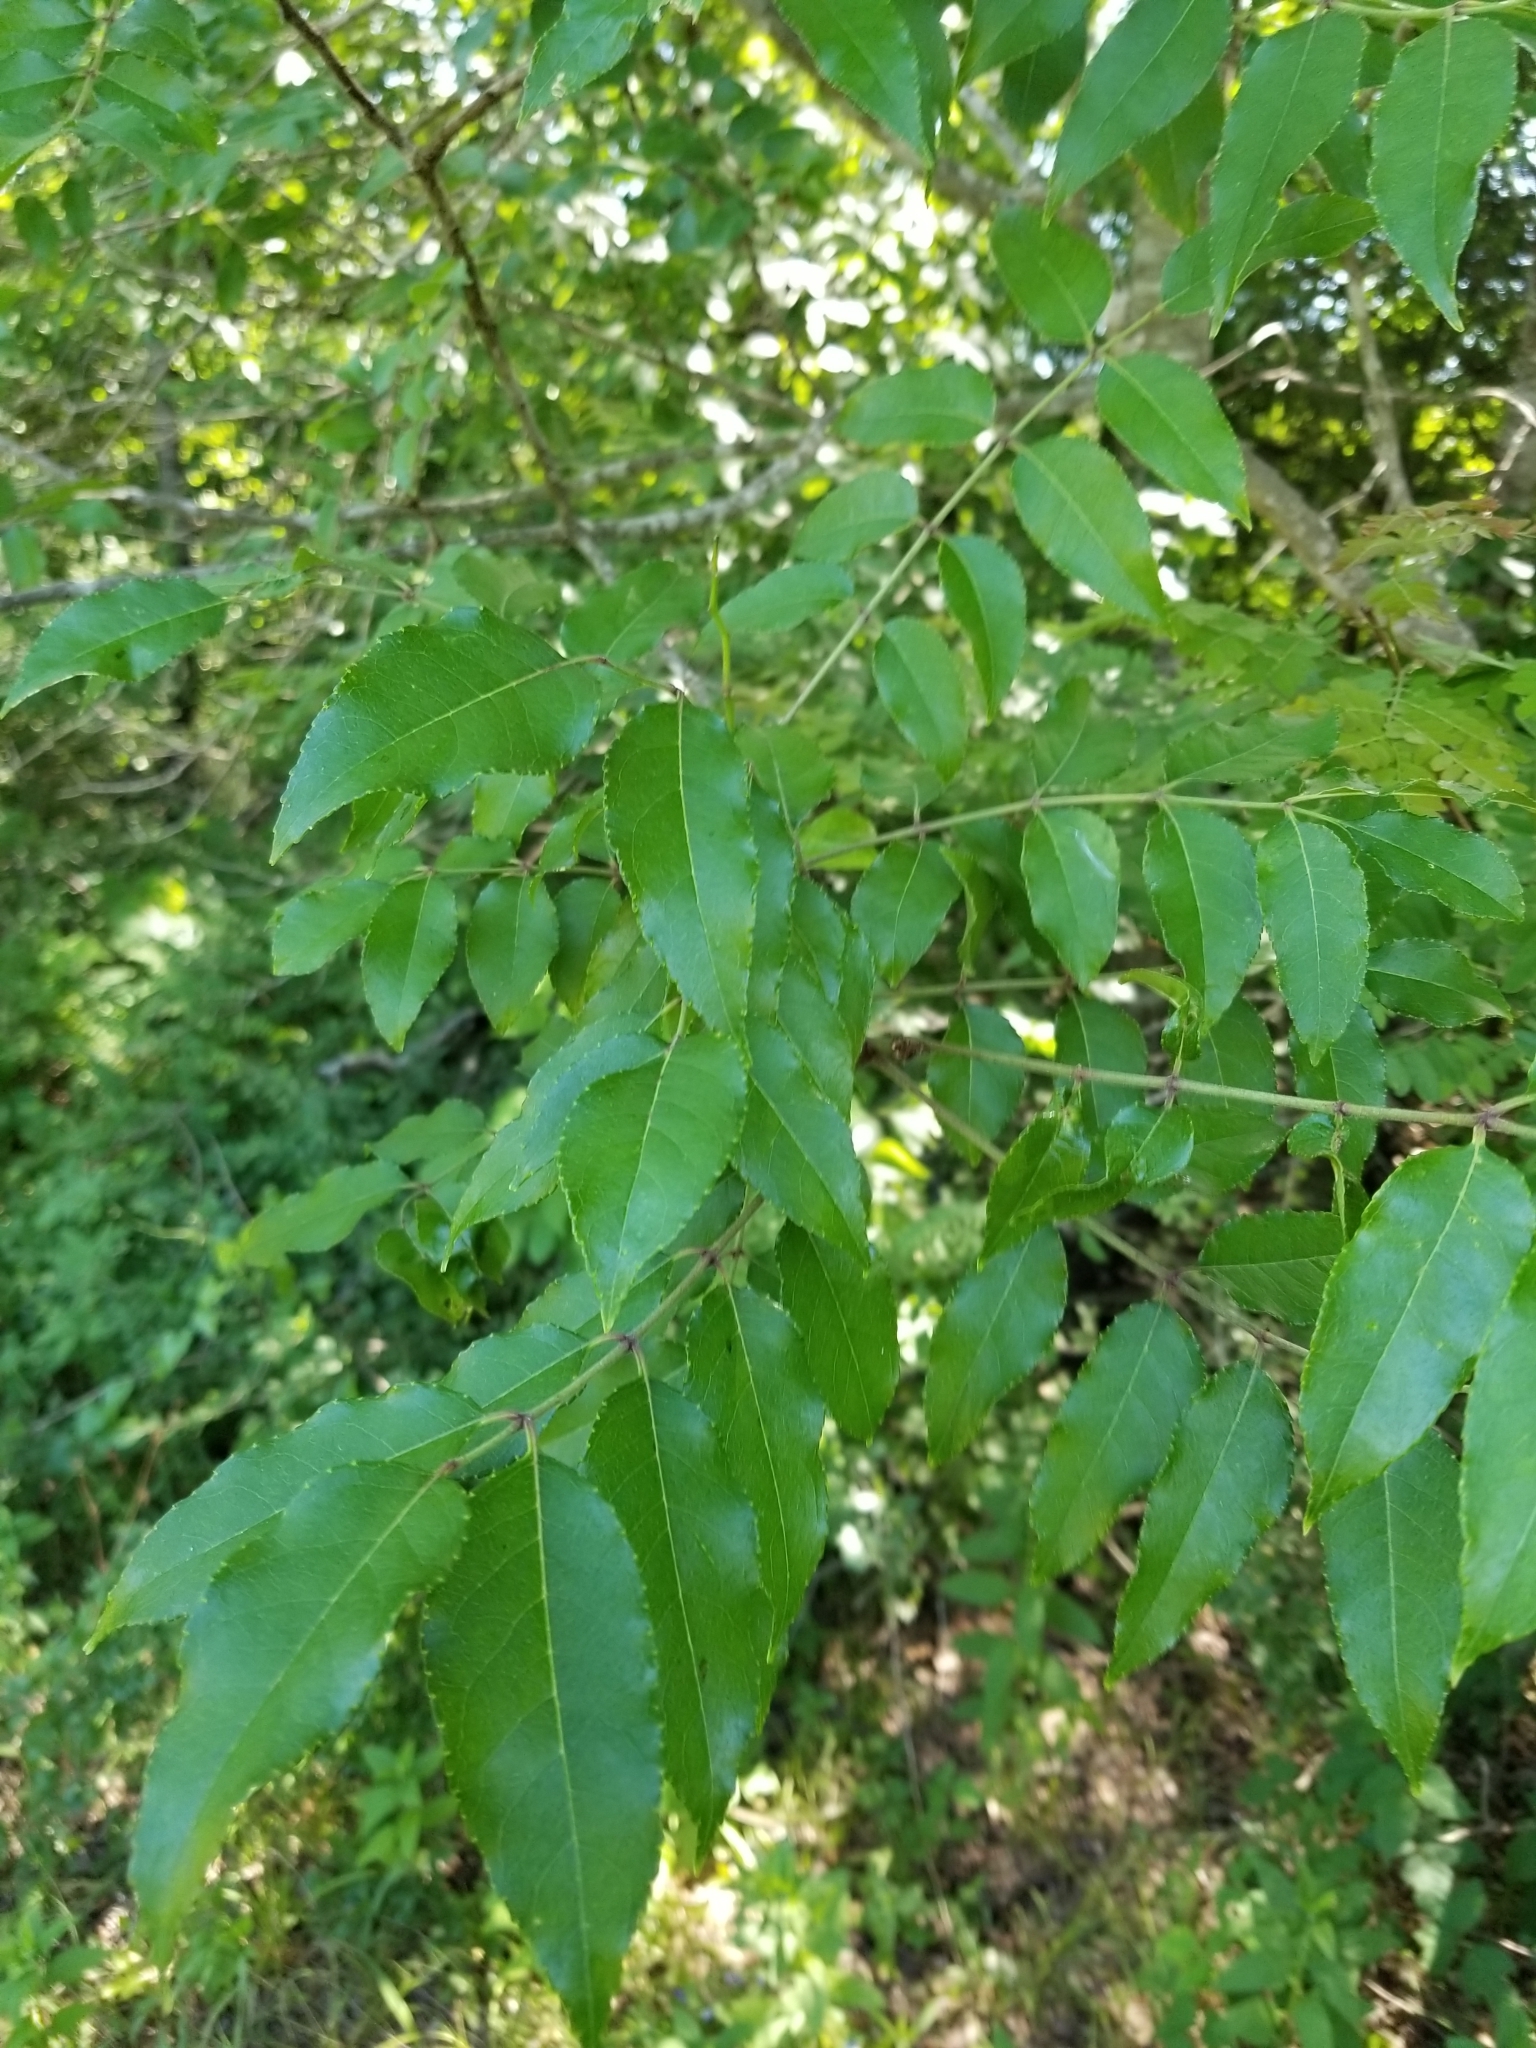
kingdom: Plantae
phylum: Tracheophyta
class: Magnoliopsida
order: Sapindales
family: Rutaceae
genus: Zanthoxylum
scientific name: Zanthoxylum clava-herculis
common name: Hercules'-club
